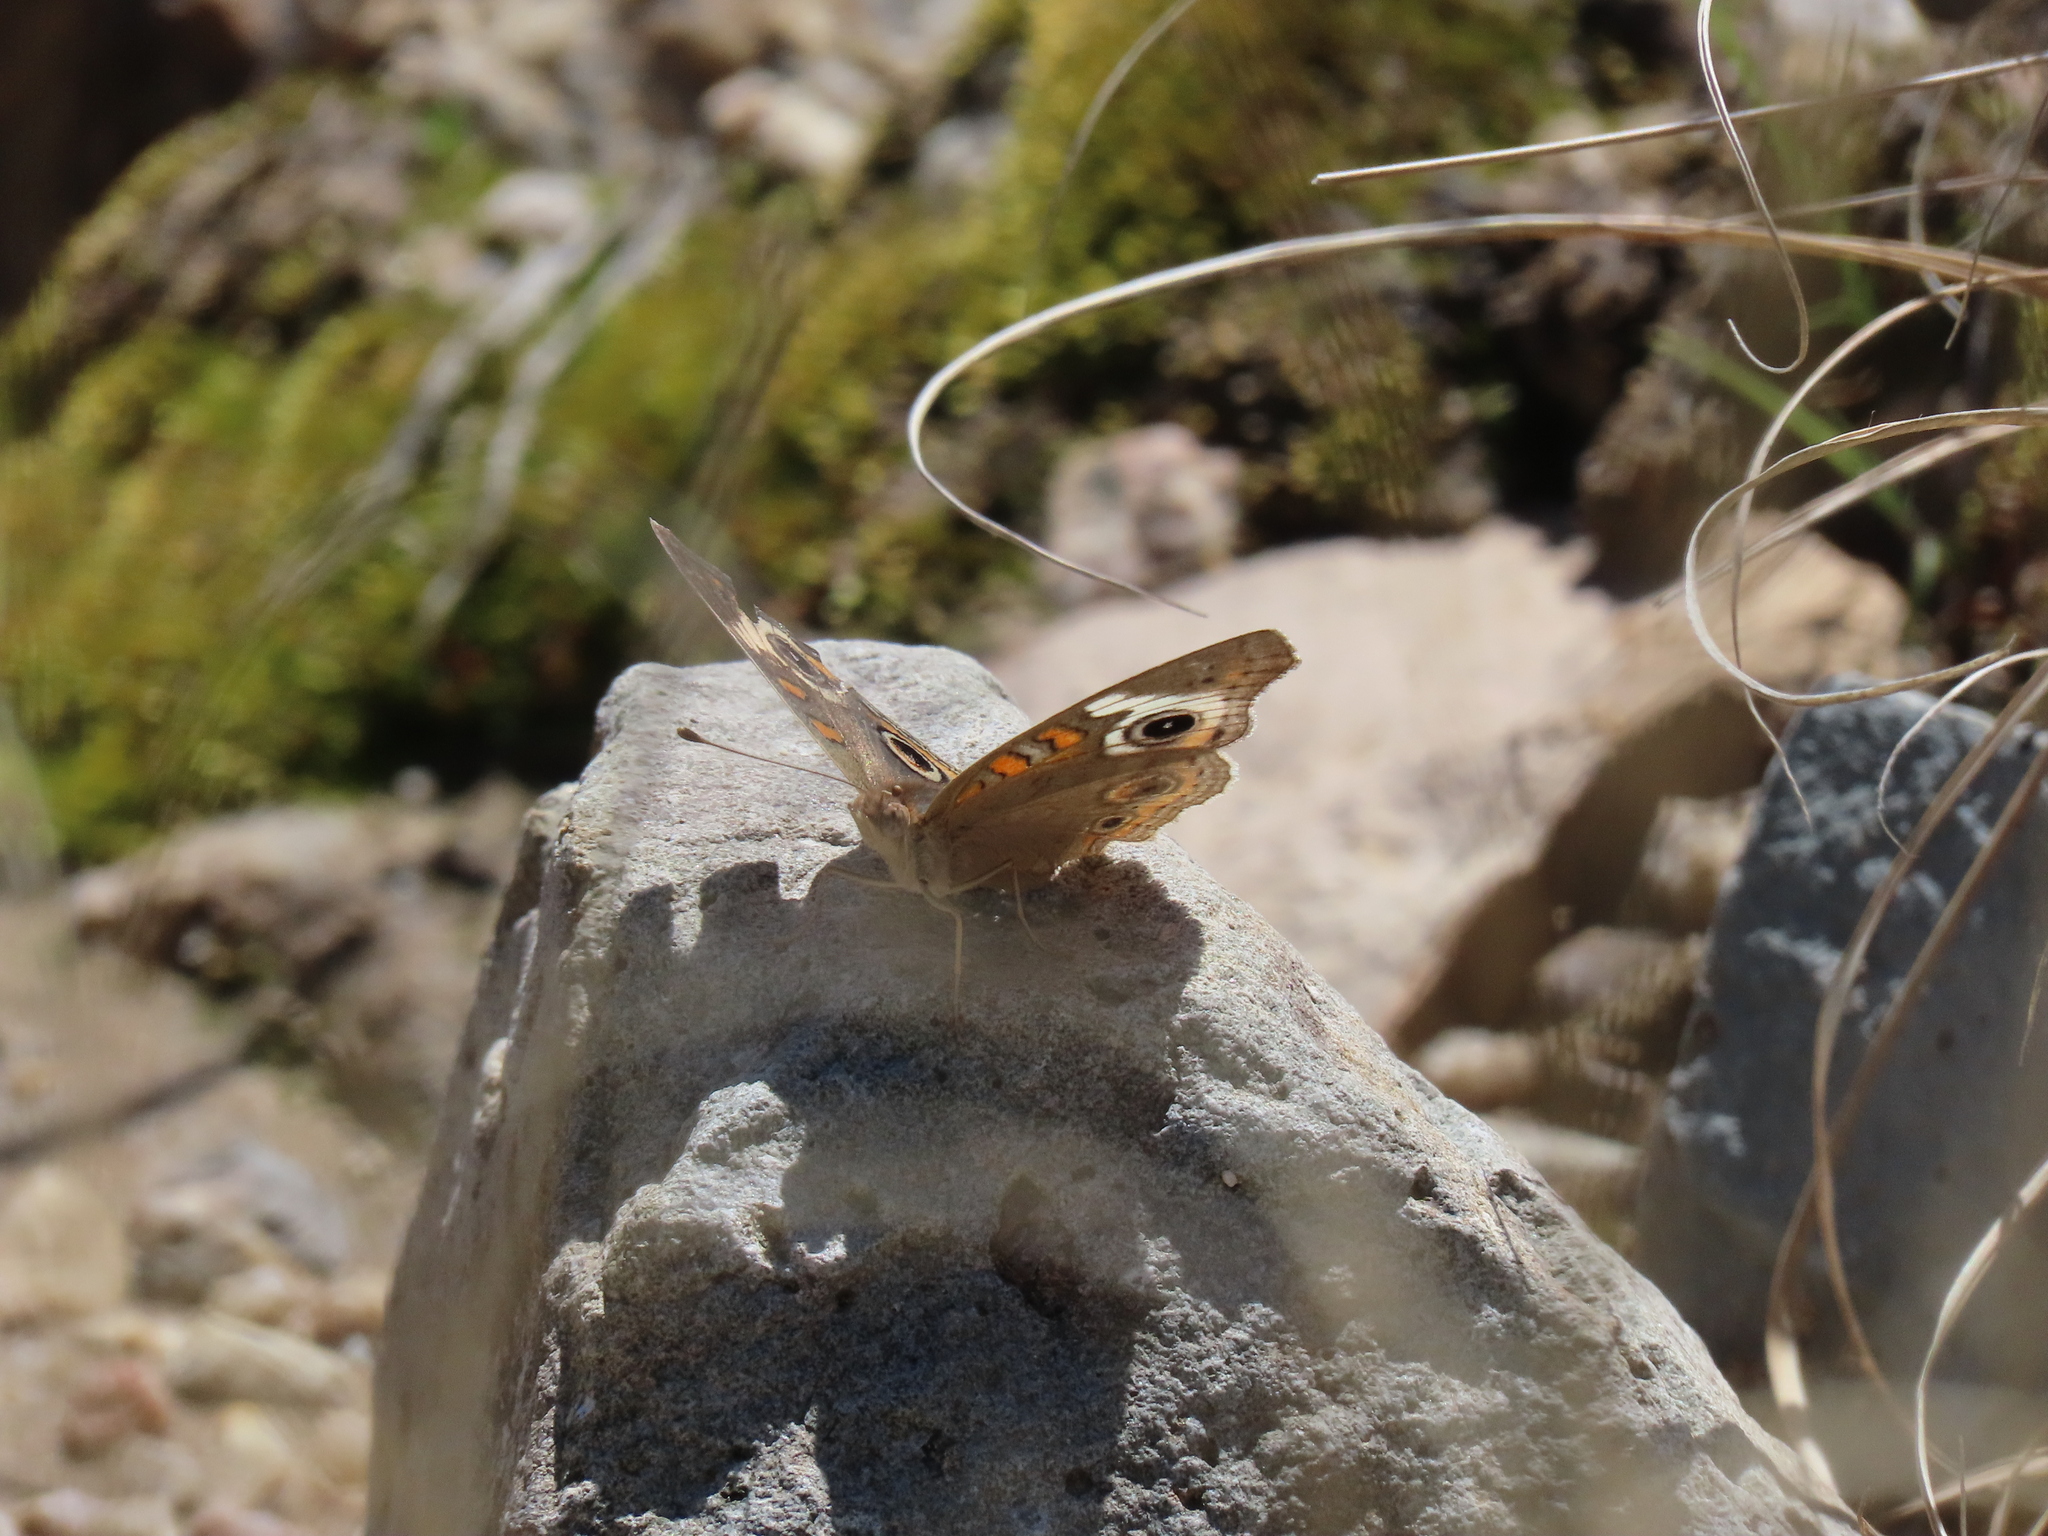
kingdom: Animalia
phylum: Arthropoda
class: Insecta
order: Lepidoptera
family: Nymphalidae
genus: Junonia
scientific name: Junonia grisea
